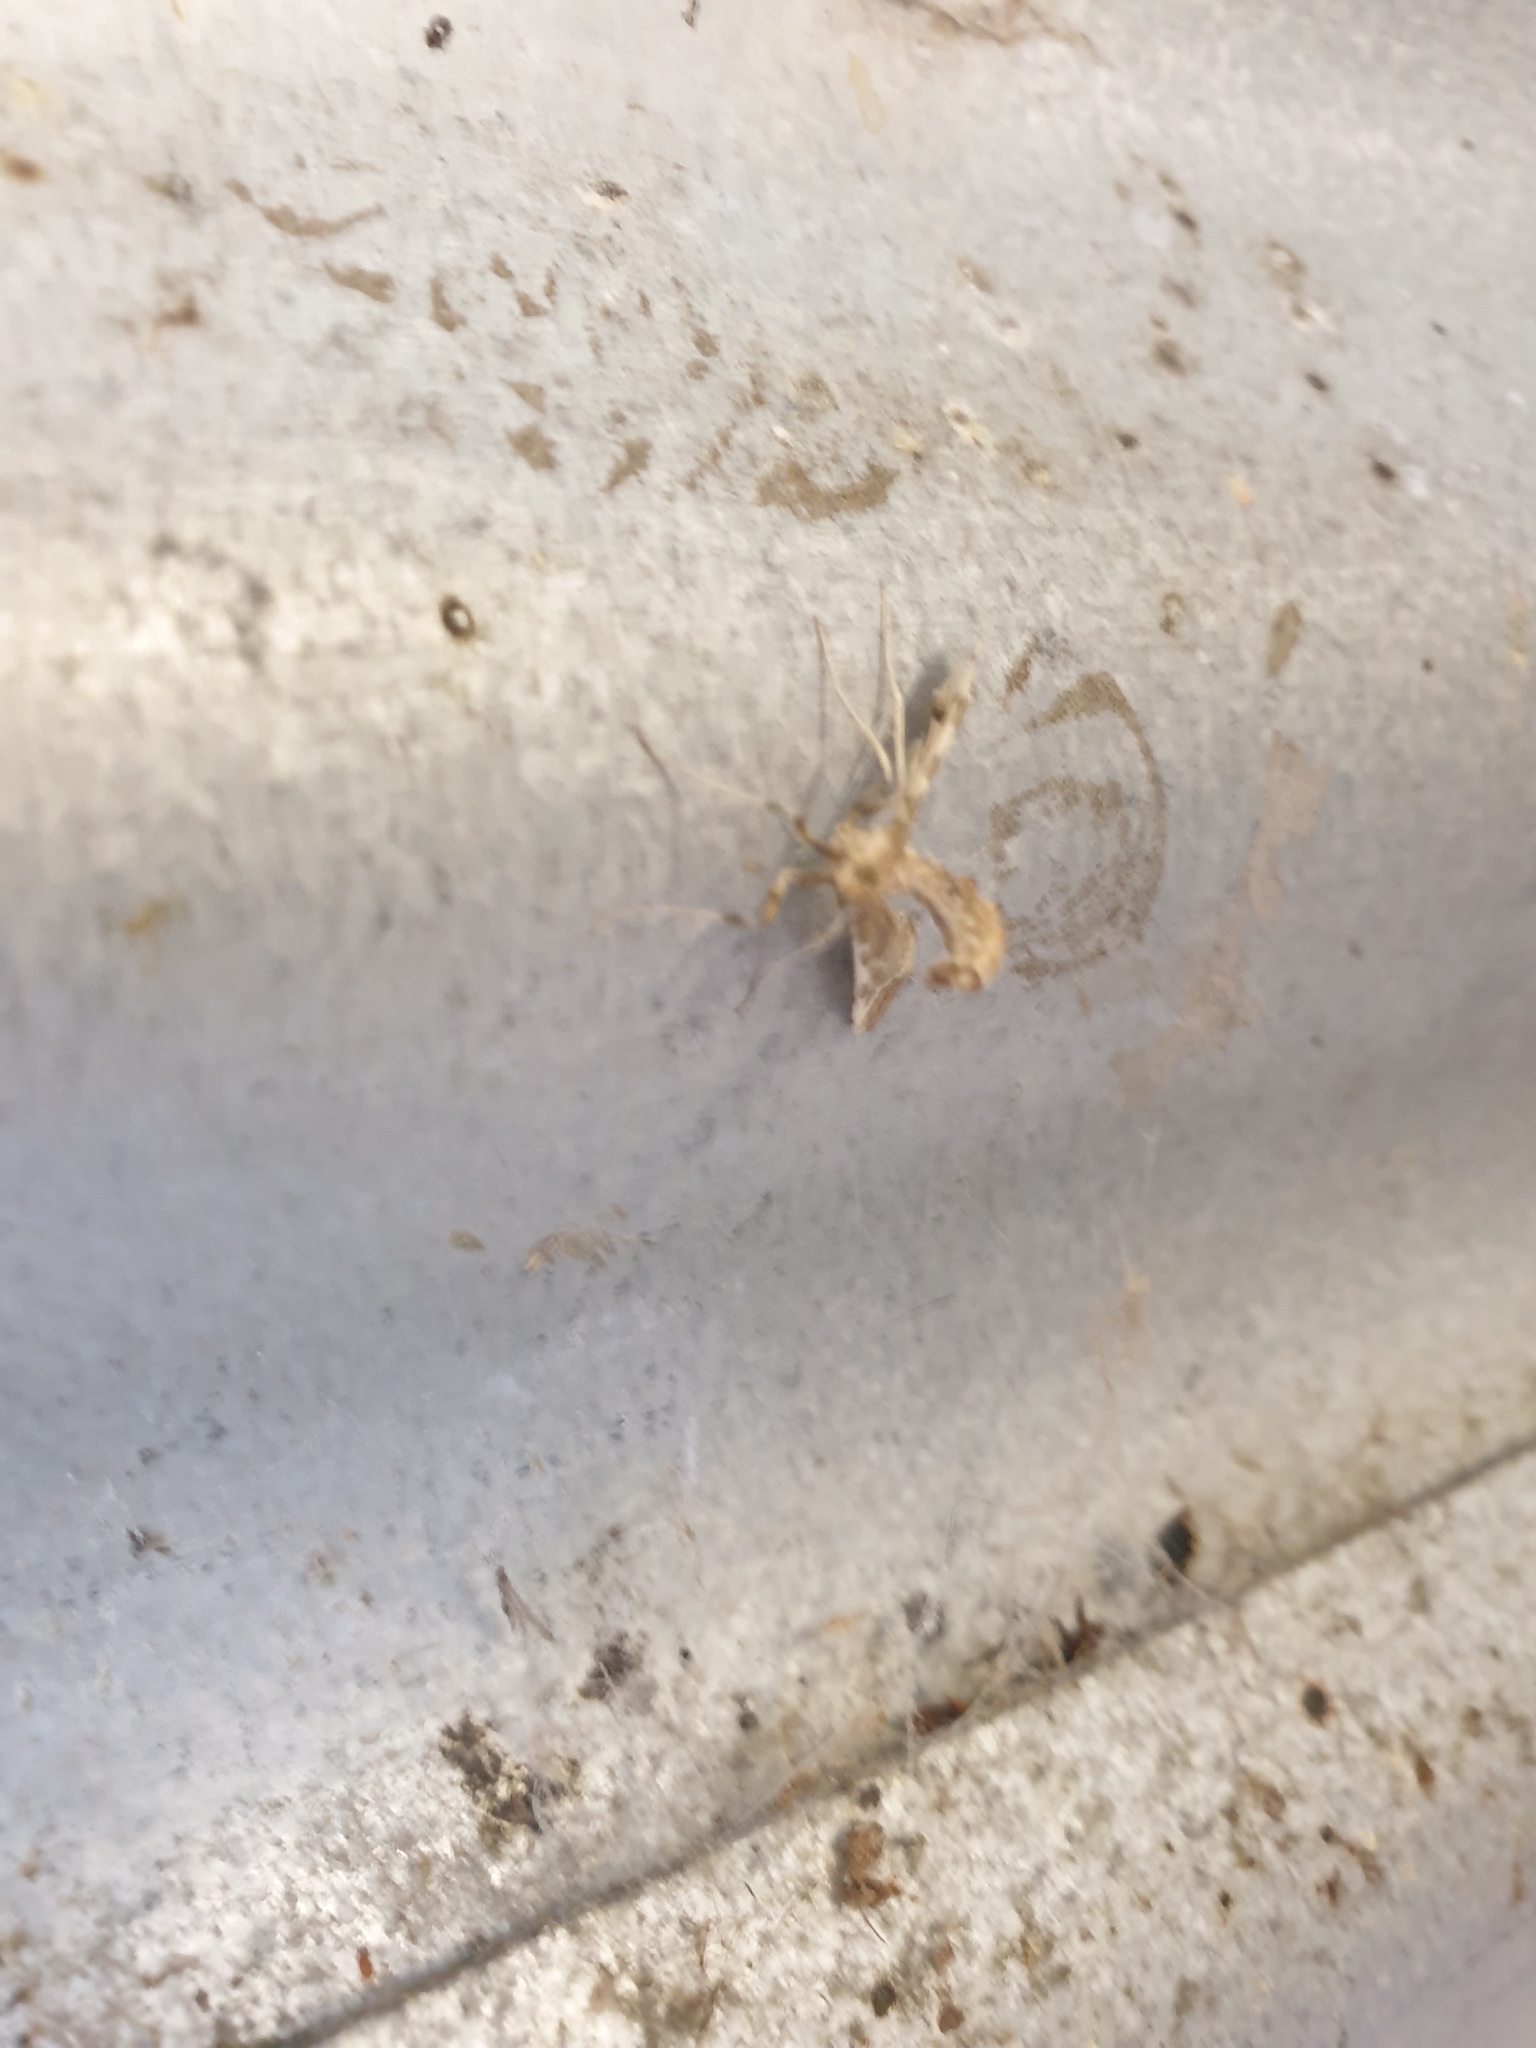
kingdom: Animalia
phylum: Arthropoda
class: Insecta
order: Lepidoptera
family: Crambidae
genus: Sceliodes
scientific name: Sceliodes cordalis
